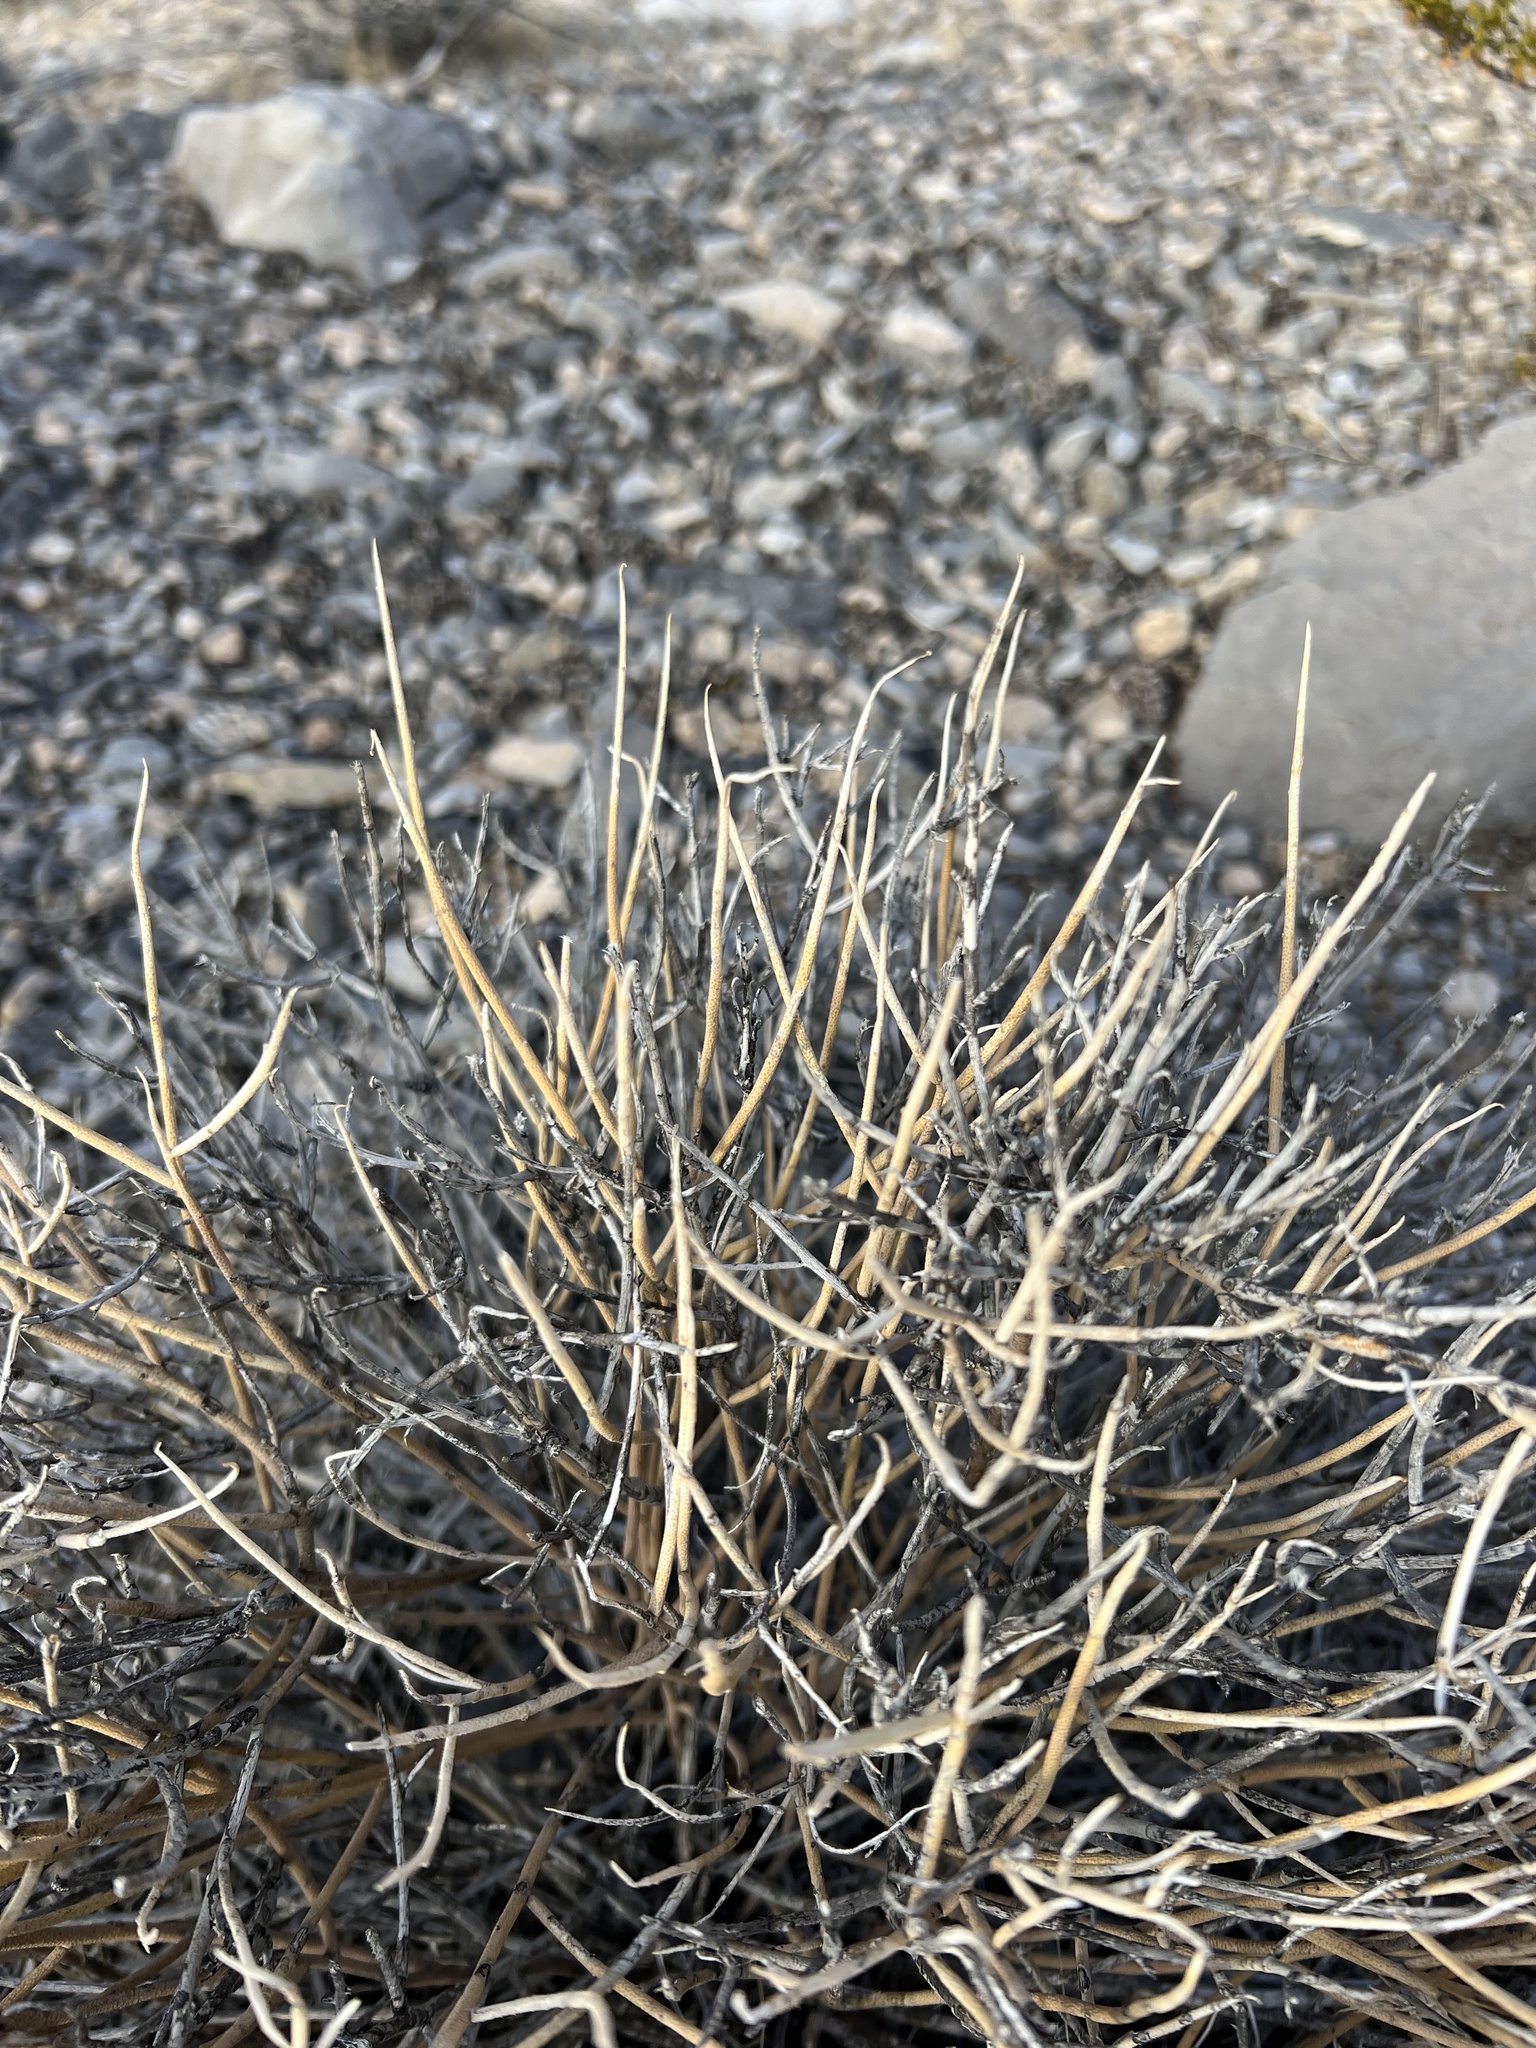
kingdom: Plantae
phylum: Tracheophyta
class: Magnoliopsida
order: Sapindales
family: Rutaceae
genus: Thamnosma
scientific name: Thamnosma montana
